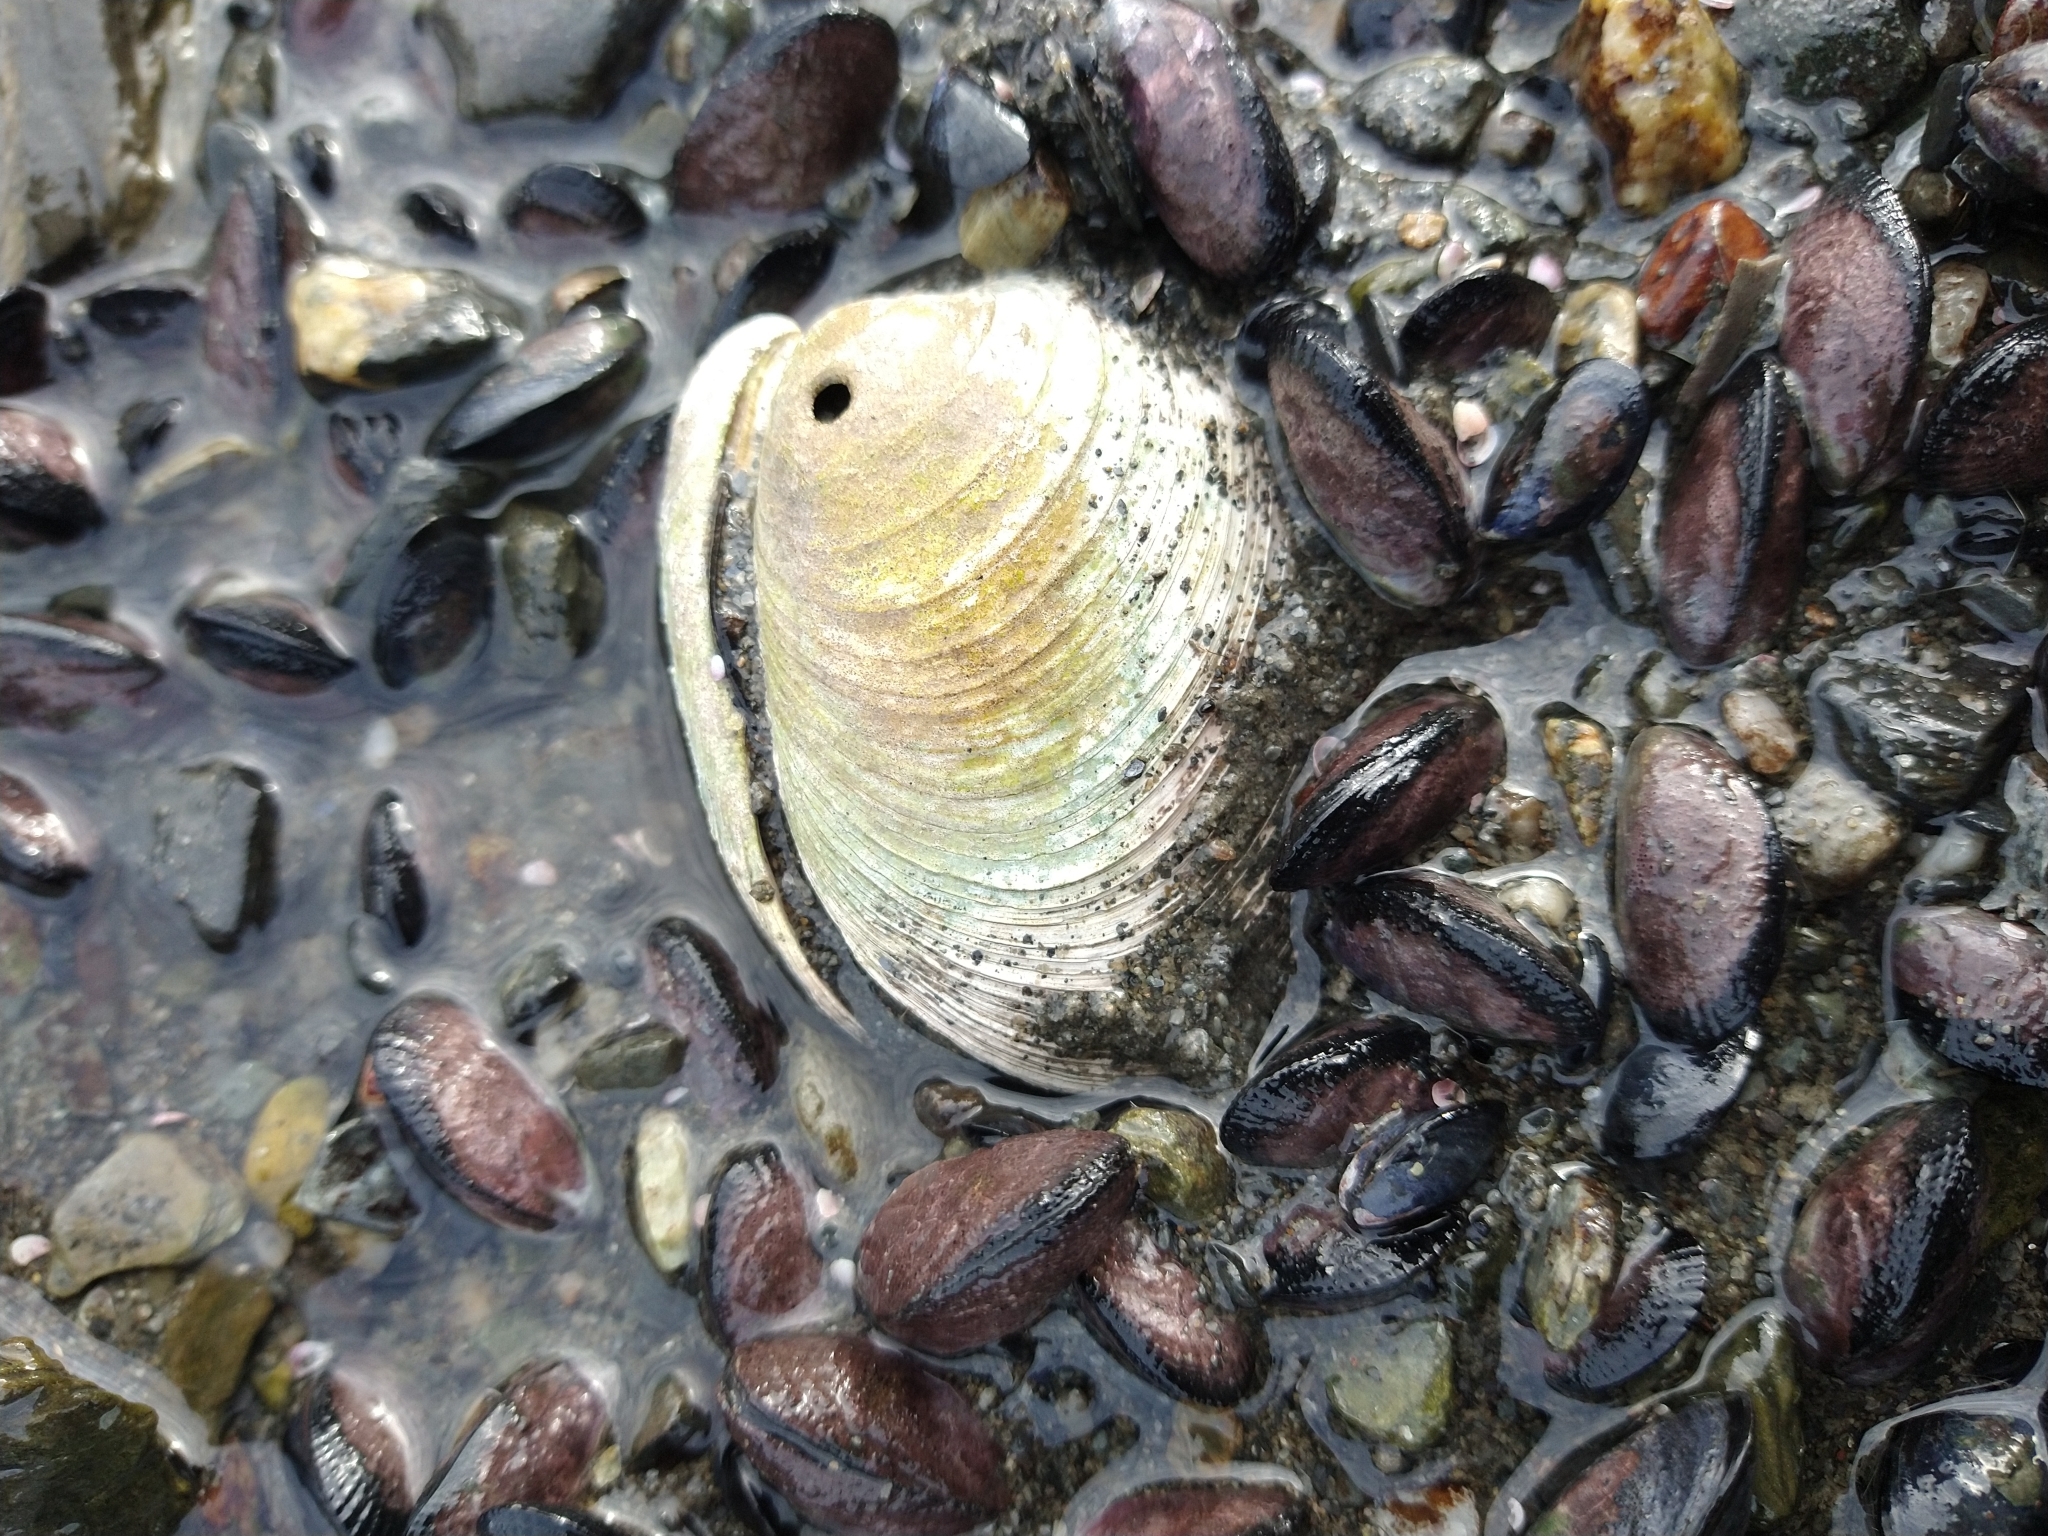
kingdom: Animalia
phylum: Mollusca
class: Bivalvia
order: Venerida
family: Veneridae
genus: Retrotapes
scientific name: Retrotapes exalbidus
